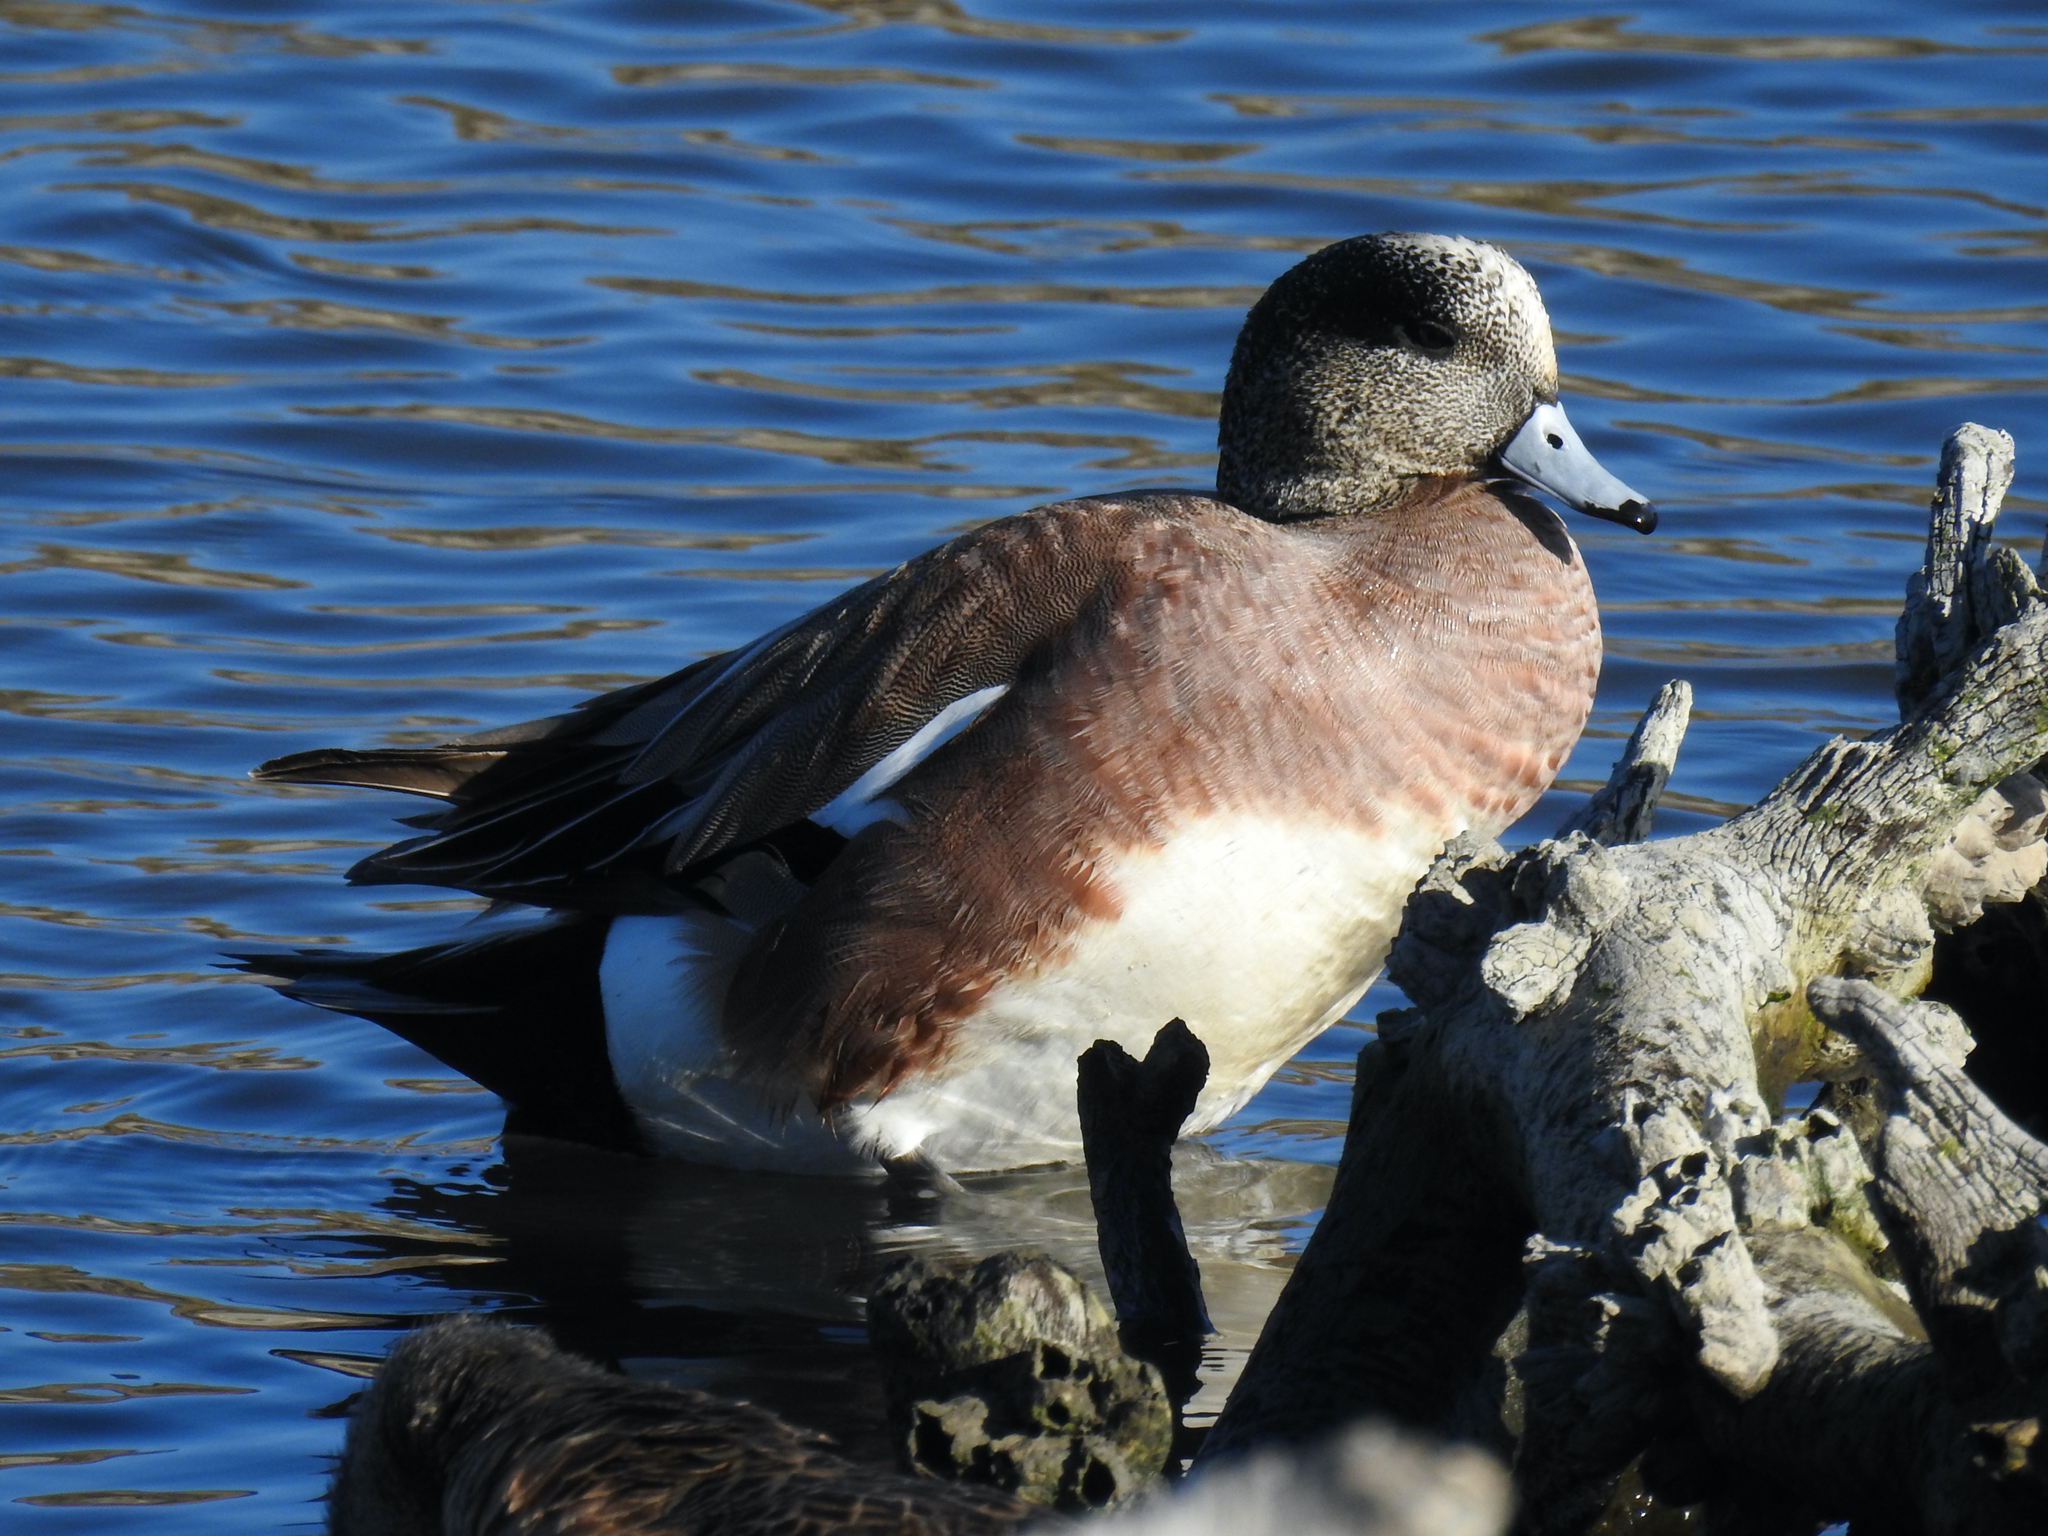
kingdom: Animalia
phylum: Chordata
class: Aves
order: Anseriformes
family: Anatidae
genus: Mareca
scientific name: Mareca americana
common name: American wigeon
